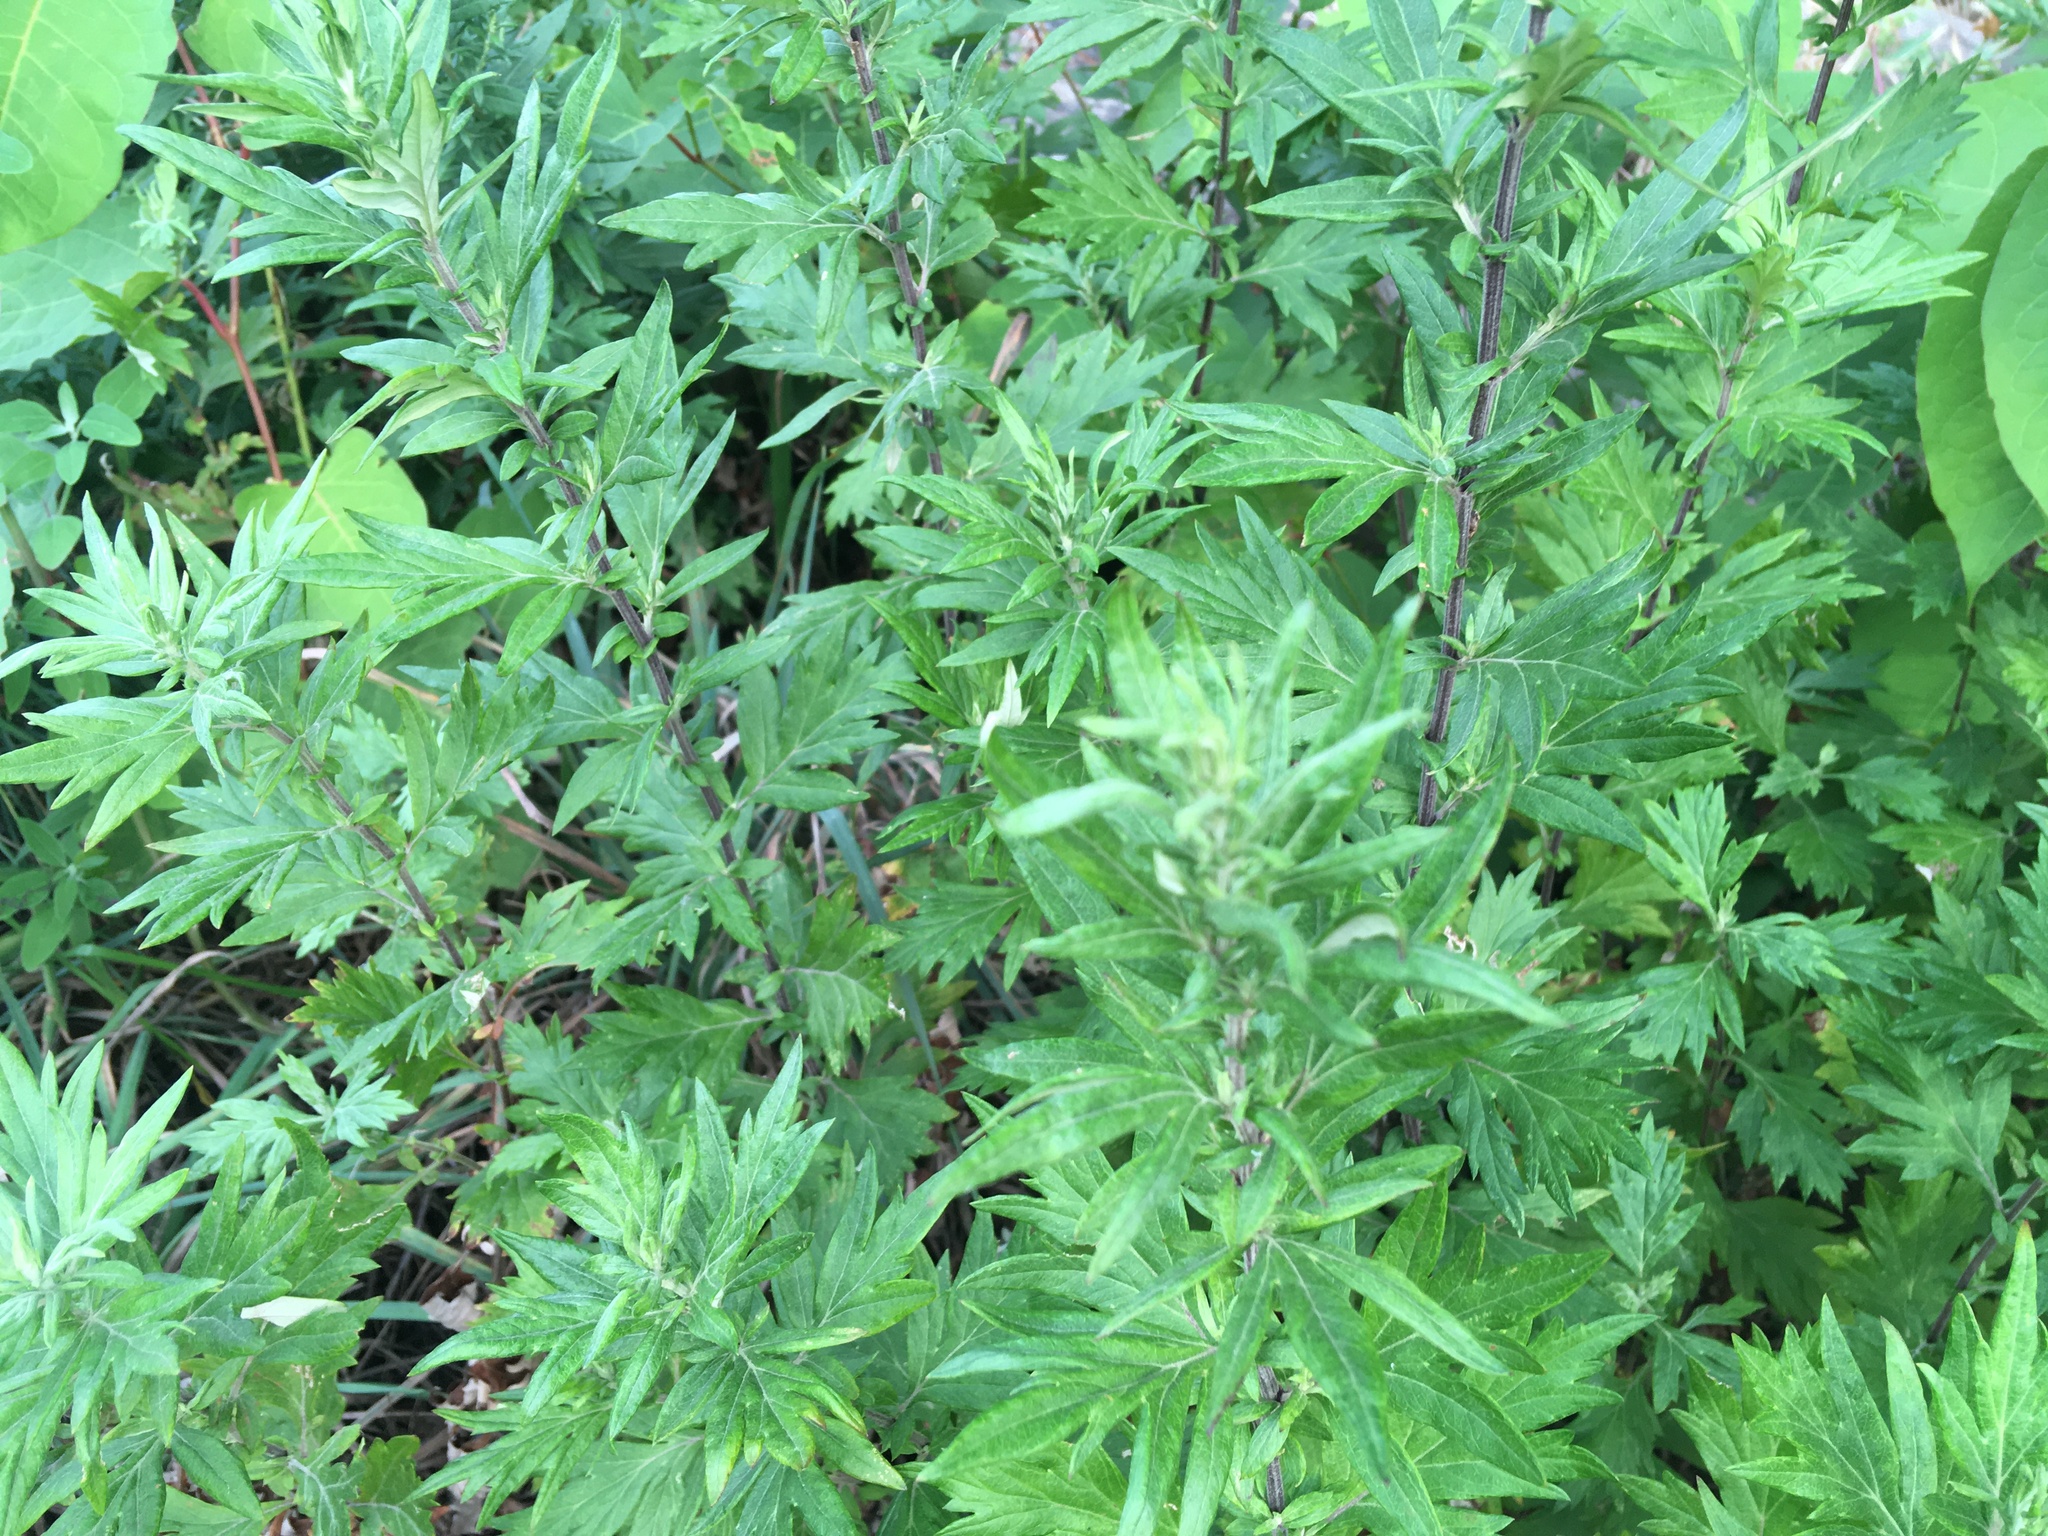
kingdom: Plantae
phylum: Tracheophyta
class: Magnoliopsida
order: Asterales
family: Asteraceae
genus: Artemisia
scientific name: Artemisia vulgaris
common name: Mugwort
